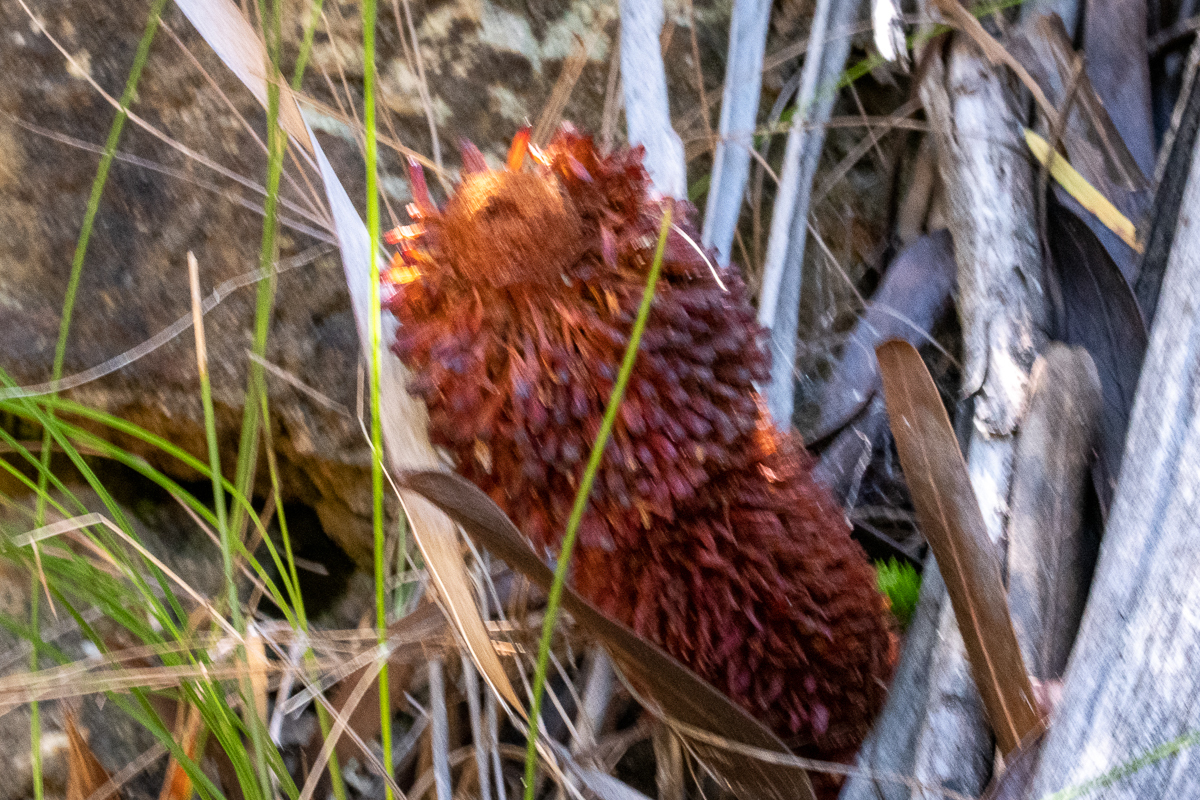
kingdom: Plantae
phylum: Tracheophyta
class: Magnoliopsida
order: Santalales
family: Mystropetalaceae
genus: Mystropetalon
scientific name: Mystropetalon thomii
